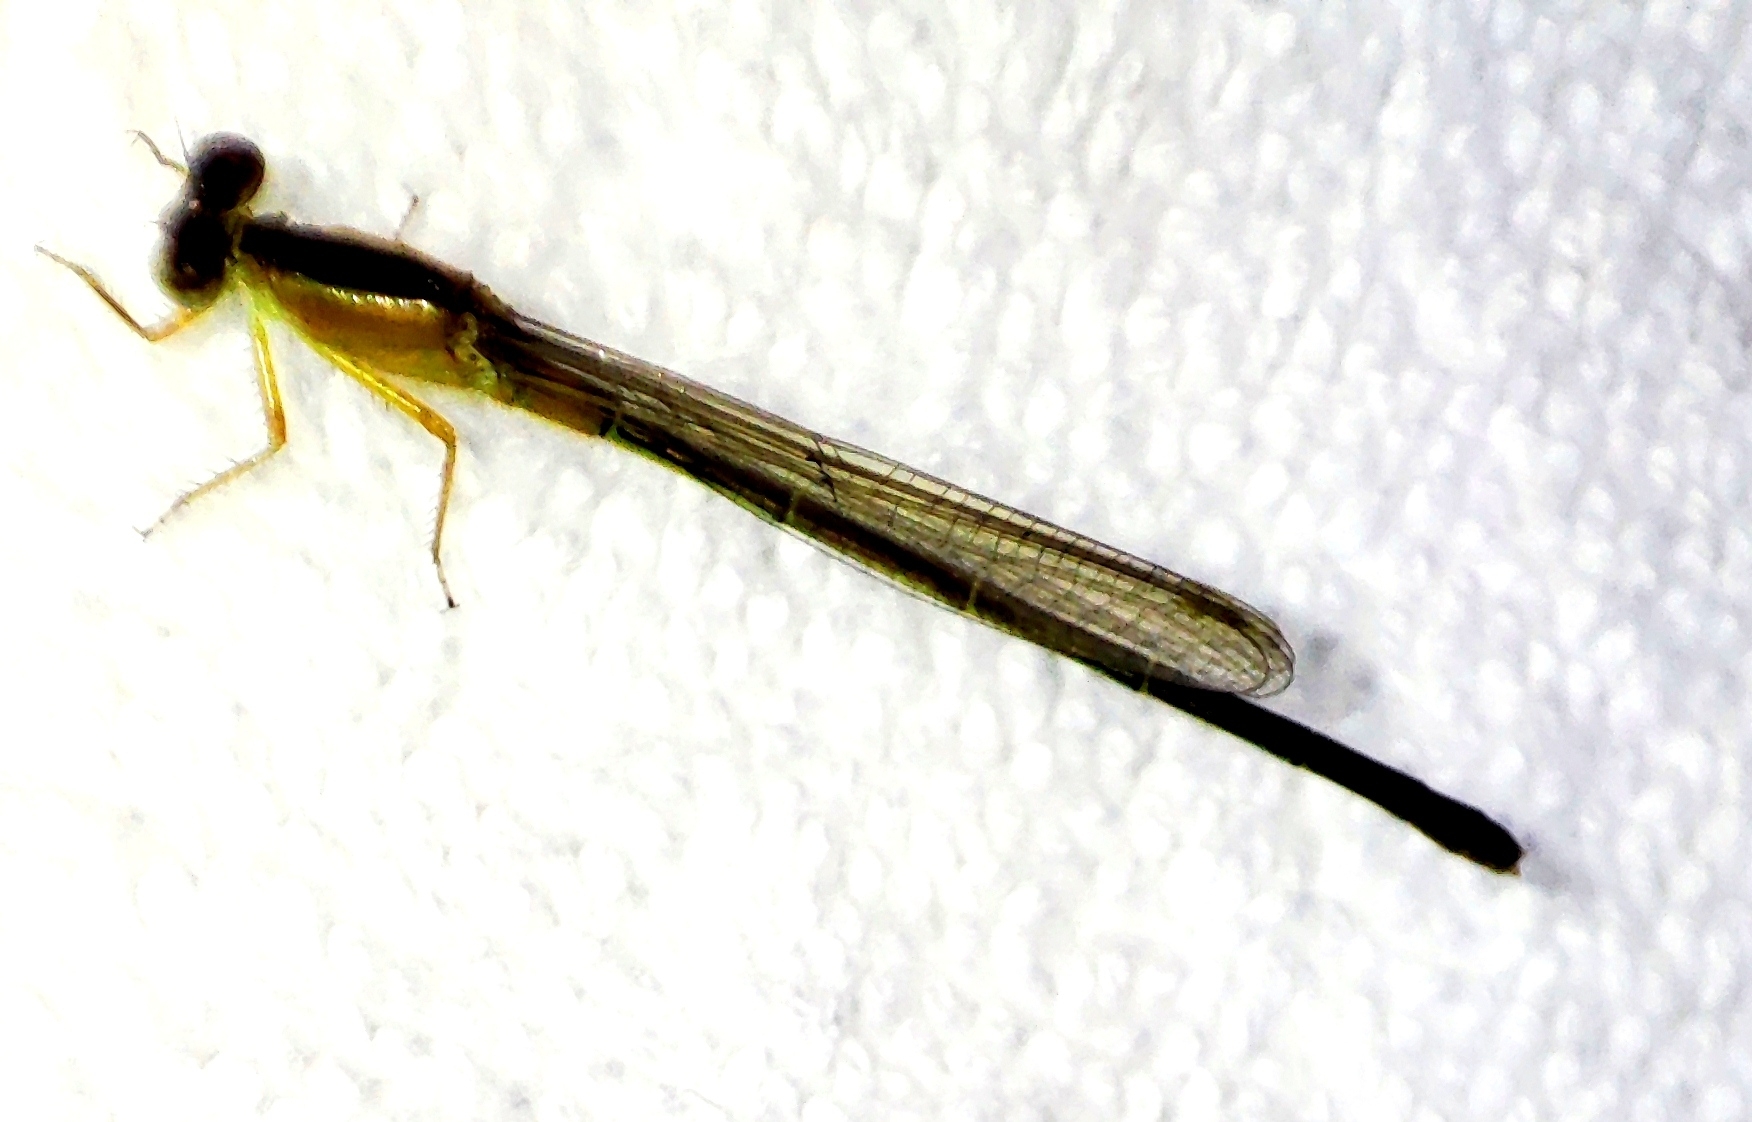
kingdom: Animalia
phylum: Arthropoda
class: Insecta
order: Odonata
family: Coenagrionidae
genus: Ischnura
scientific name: Ischnura senegalensis
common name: Tropical bluetail
